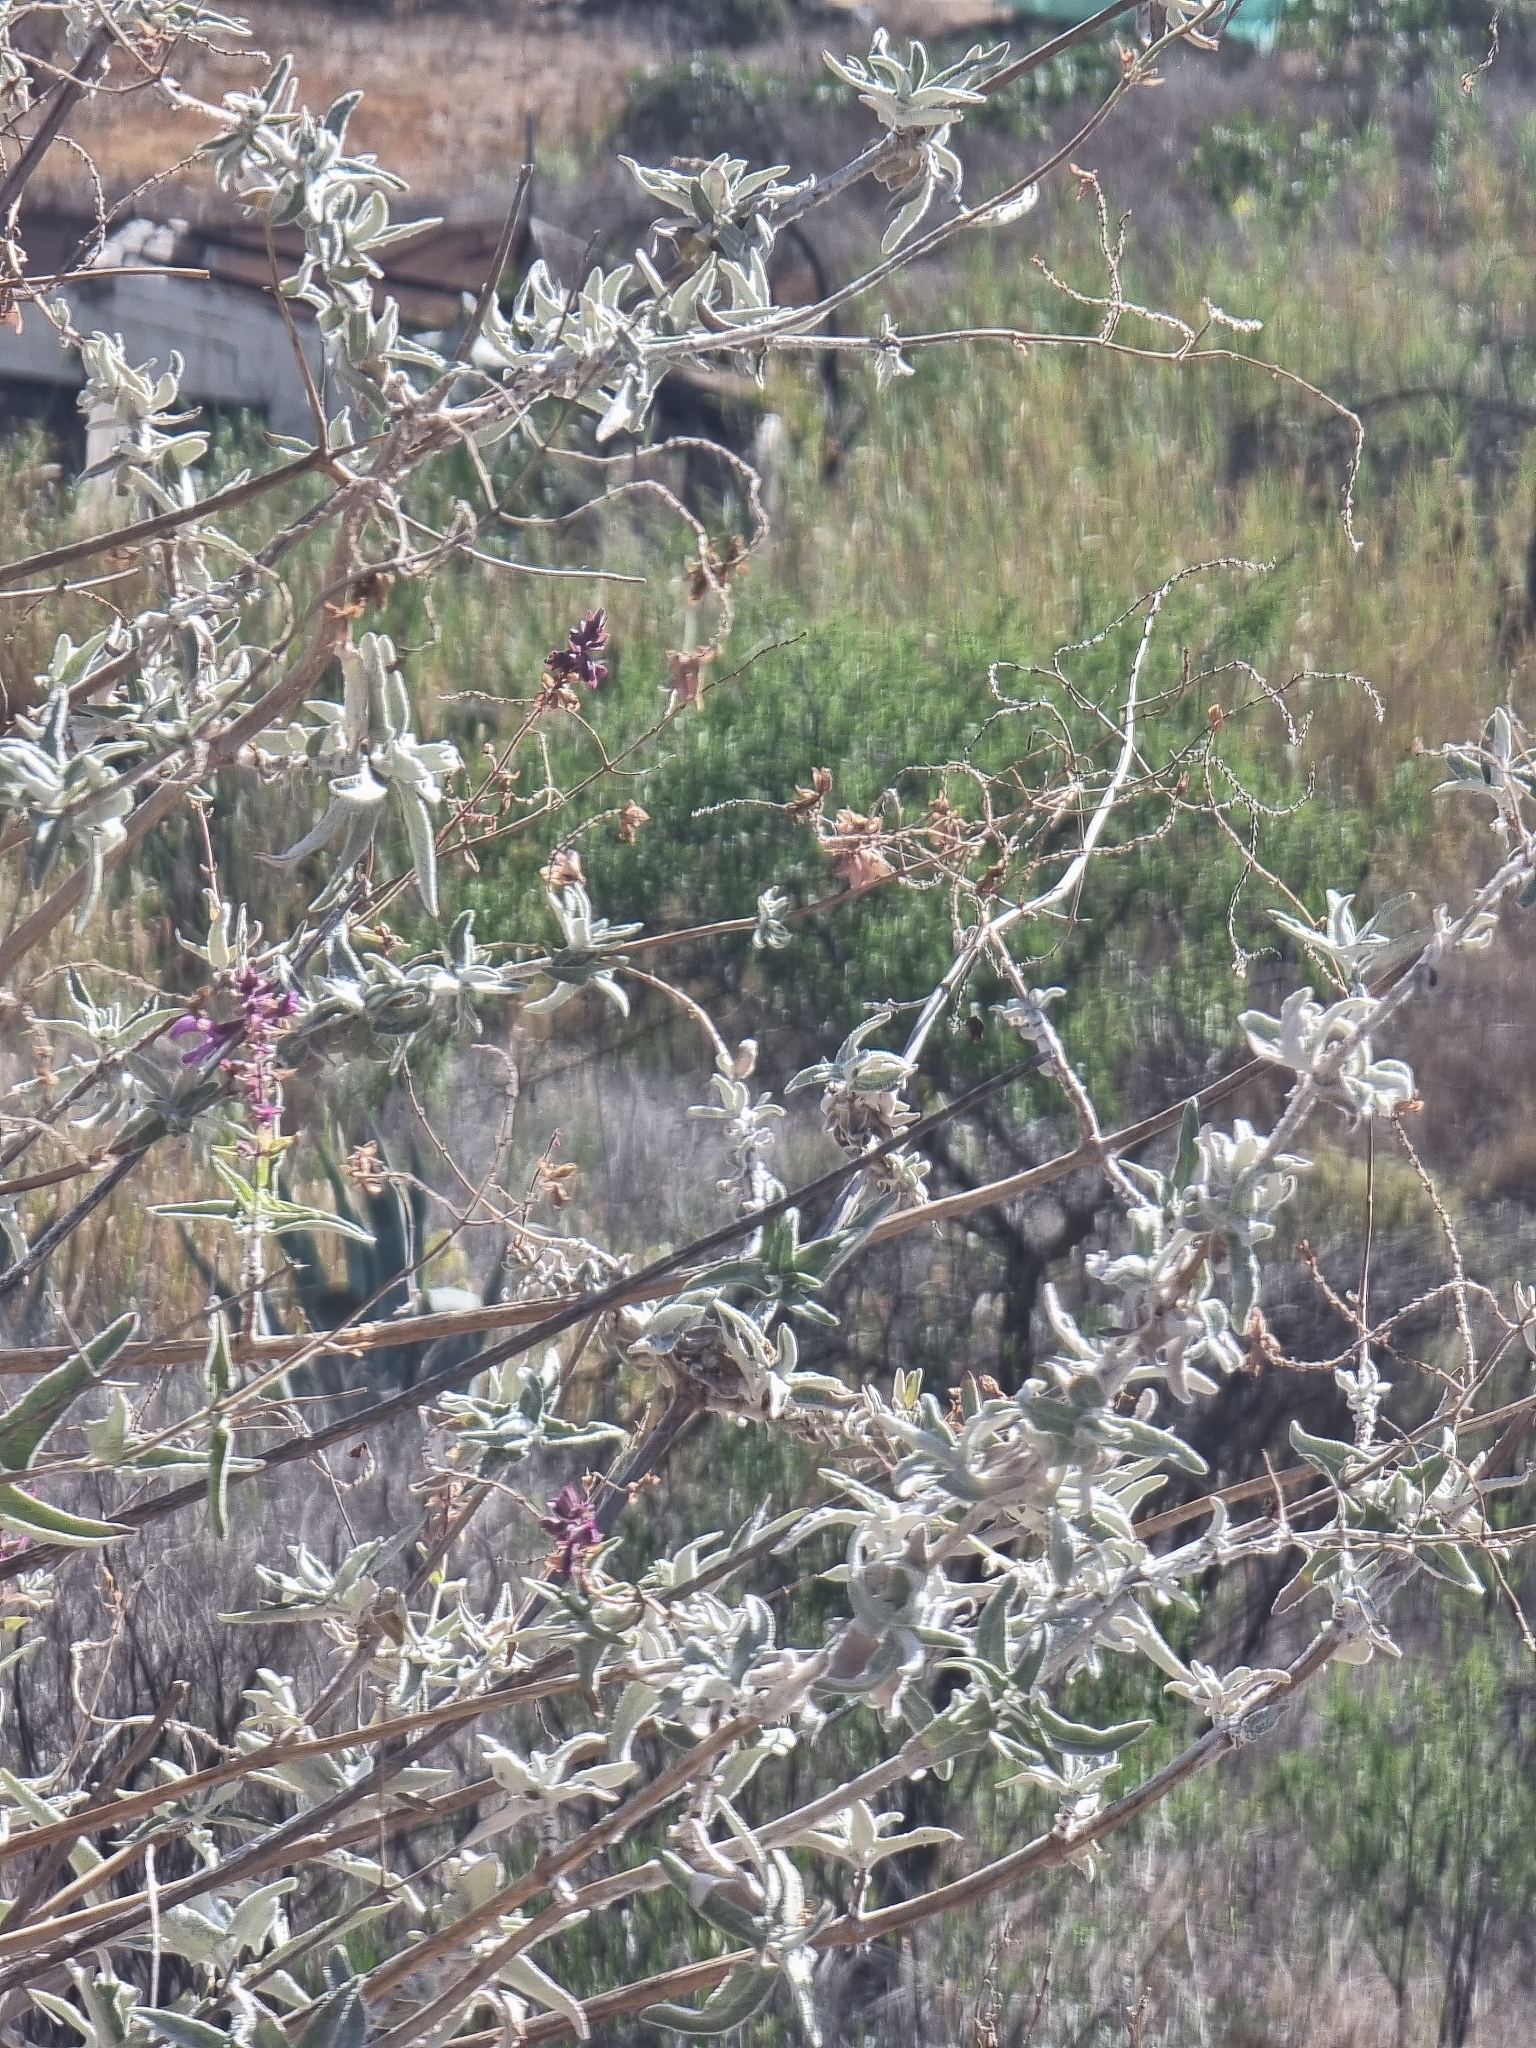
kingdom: Plantae
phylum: Tracheophyta
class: Magnoliopsida
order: Lamiales
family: Lamiaceae
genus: Salvia
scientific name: Salvia canariensis
